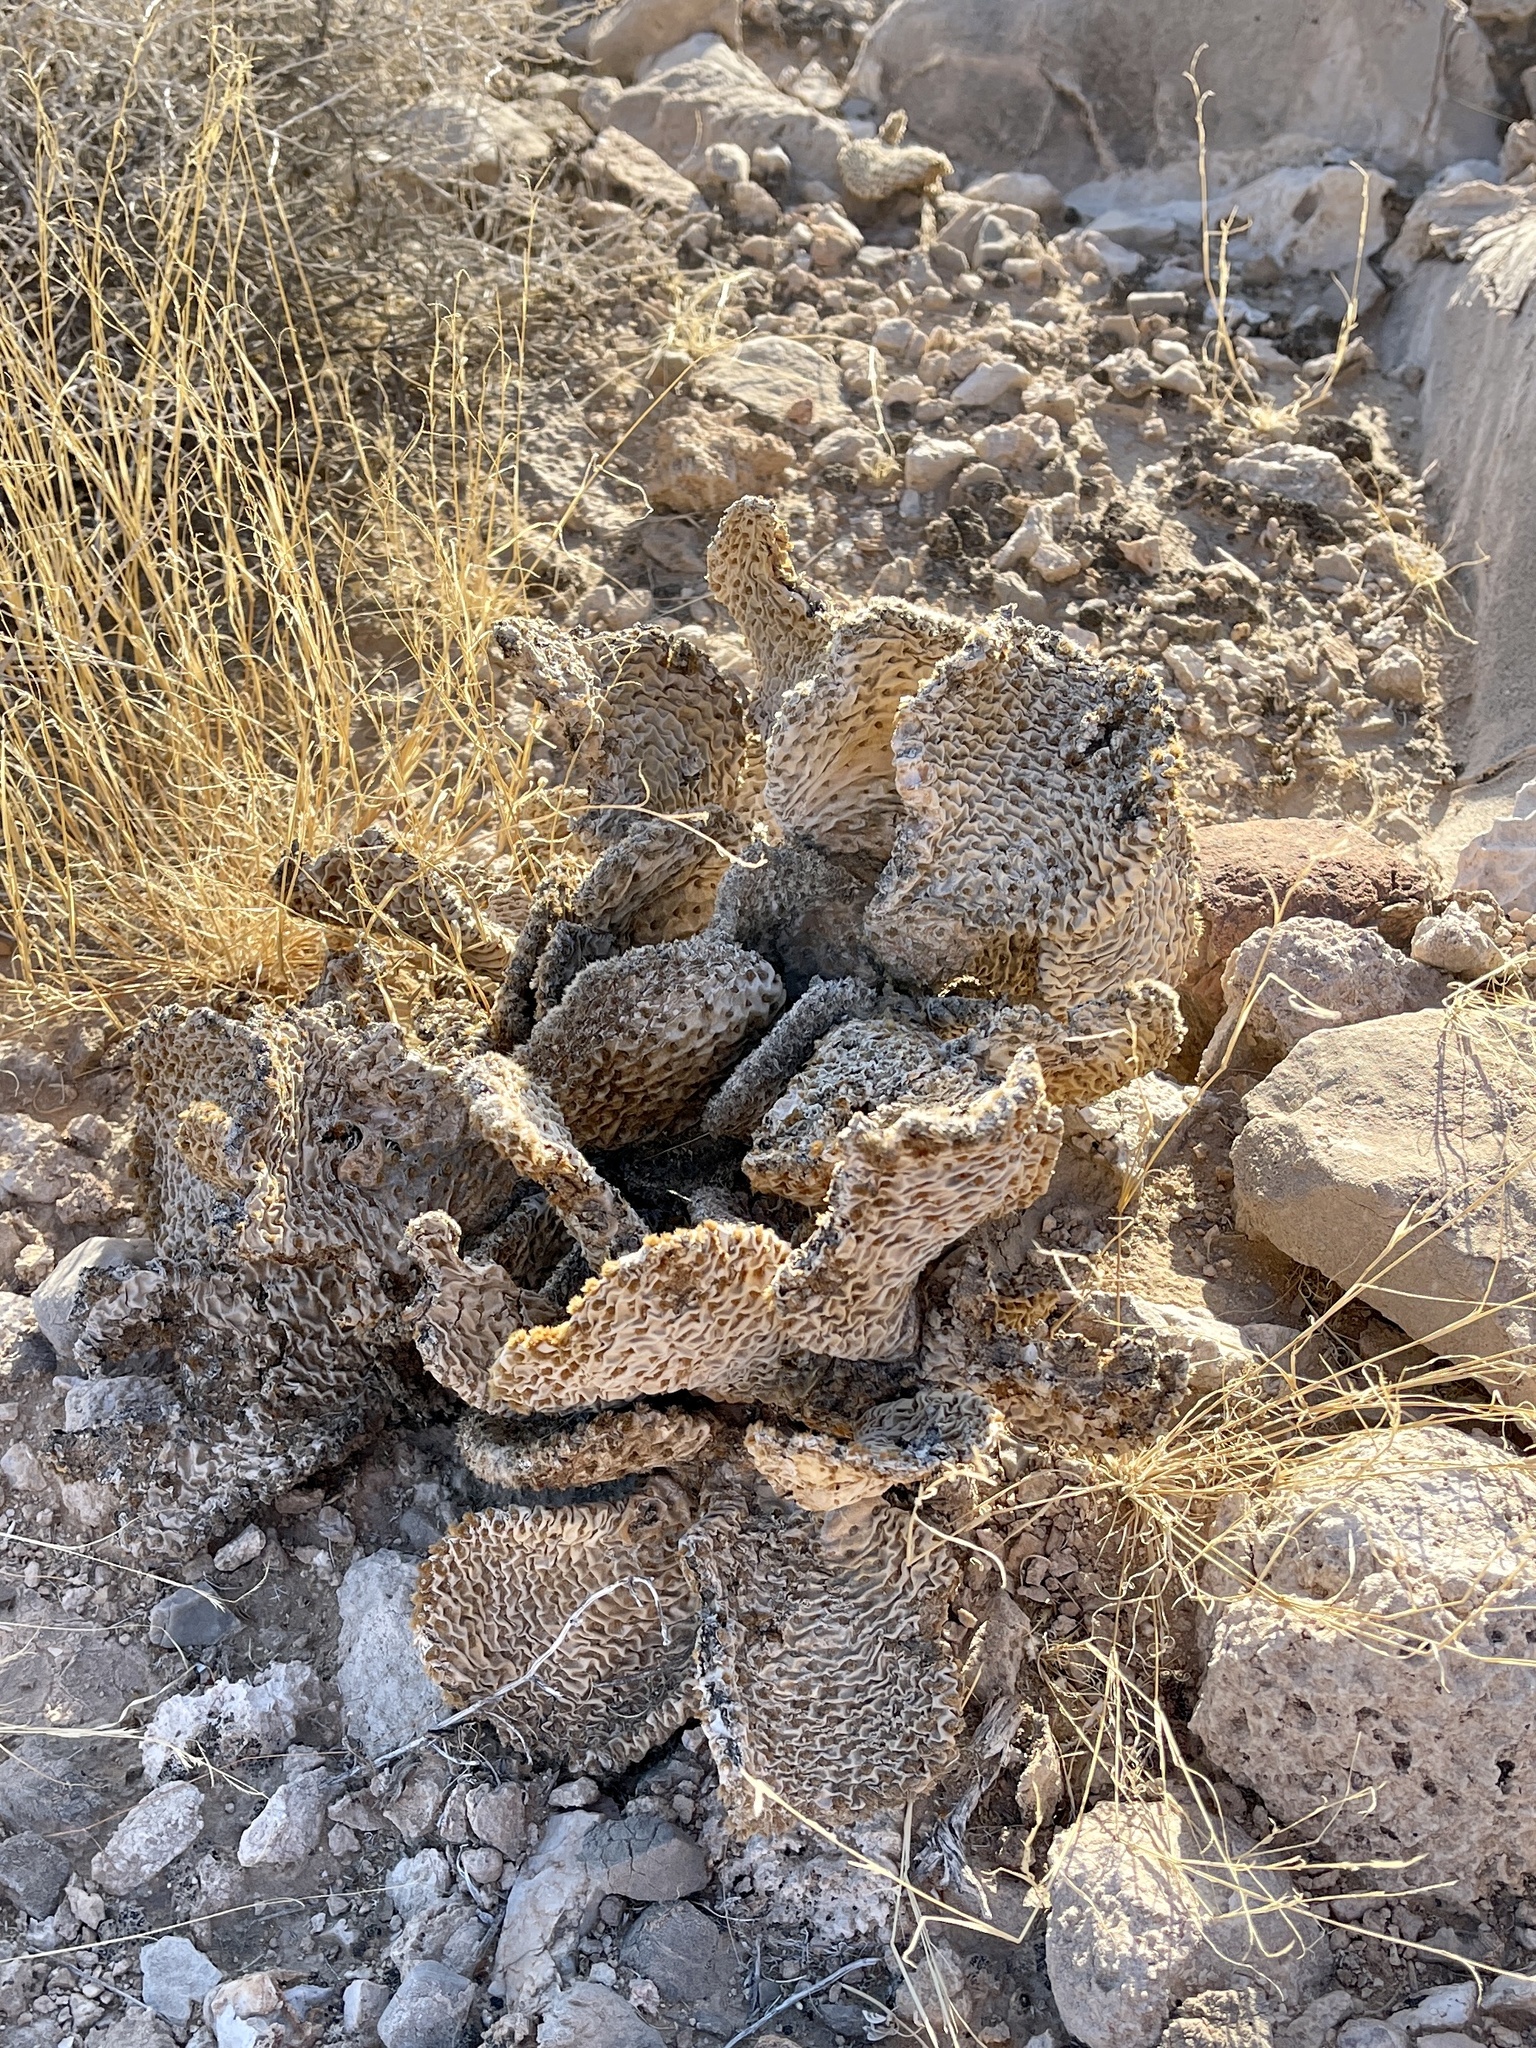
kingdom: Plantae
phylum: Tracheophyta
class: Magnoliopsida
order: Caryophyllales
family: Cactaceae
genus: Opuntia
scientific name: Opuntia basilaris
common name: Beavertail prickly-pear
